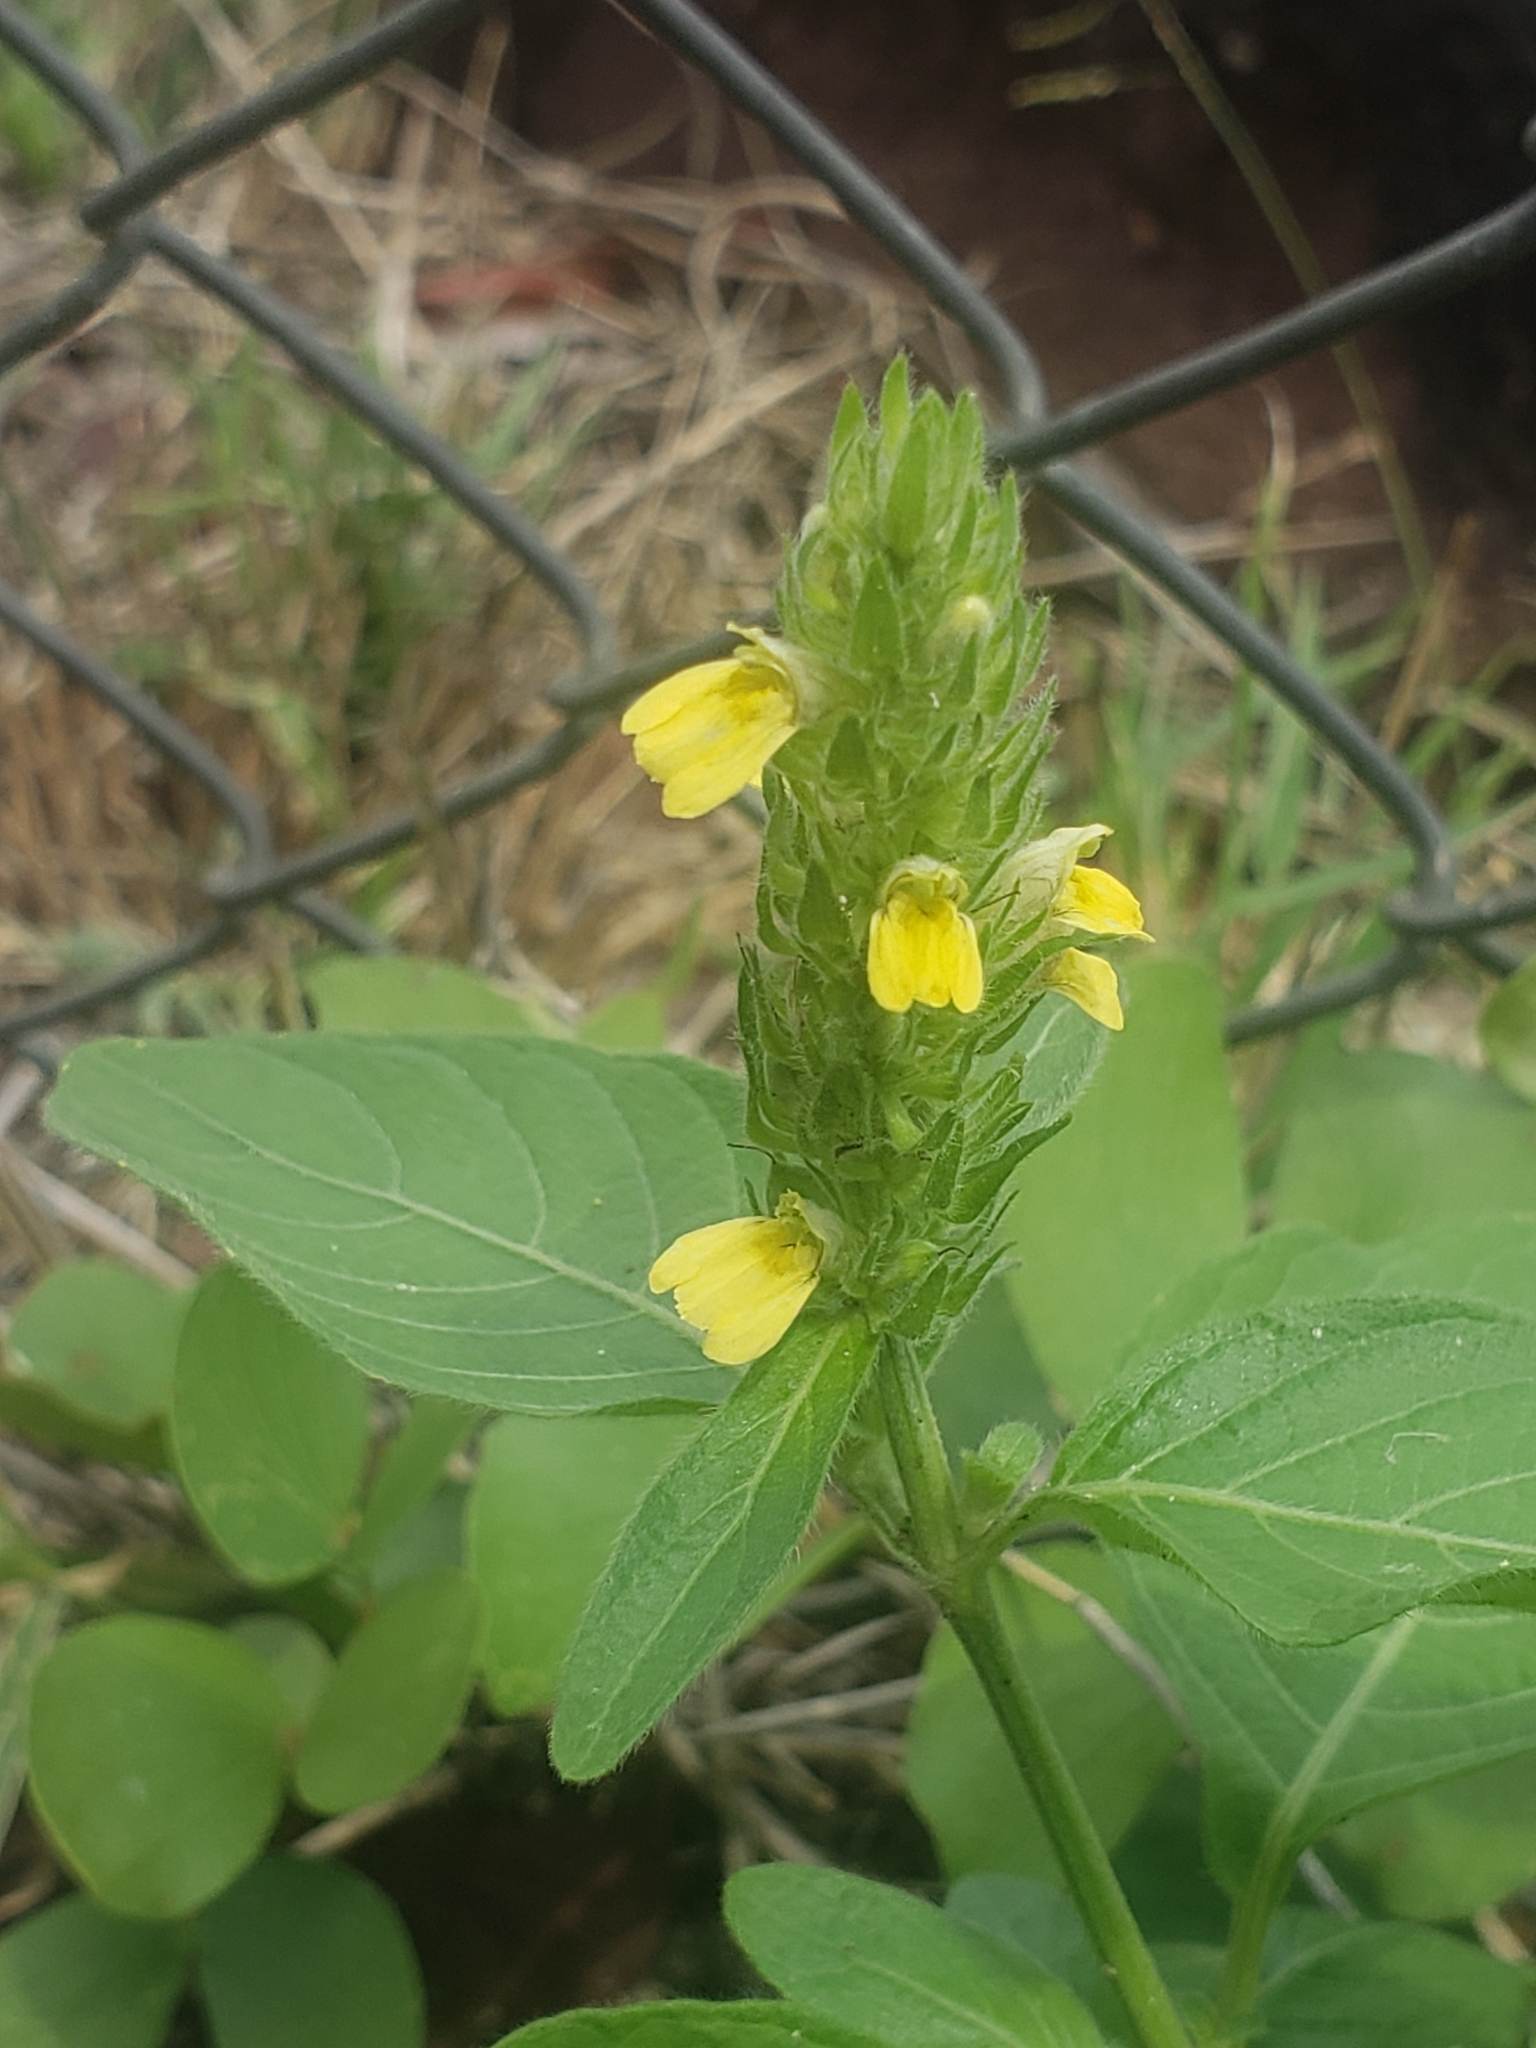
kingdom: Plantae
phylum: Tracheophyta
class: Magnoliopsida
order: Lamiales
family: Acanthaceae
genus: Justicia
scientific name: Justicia flava
